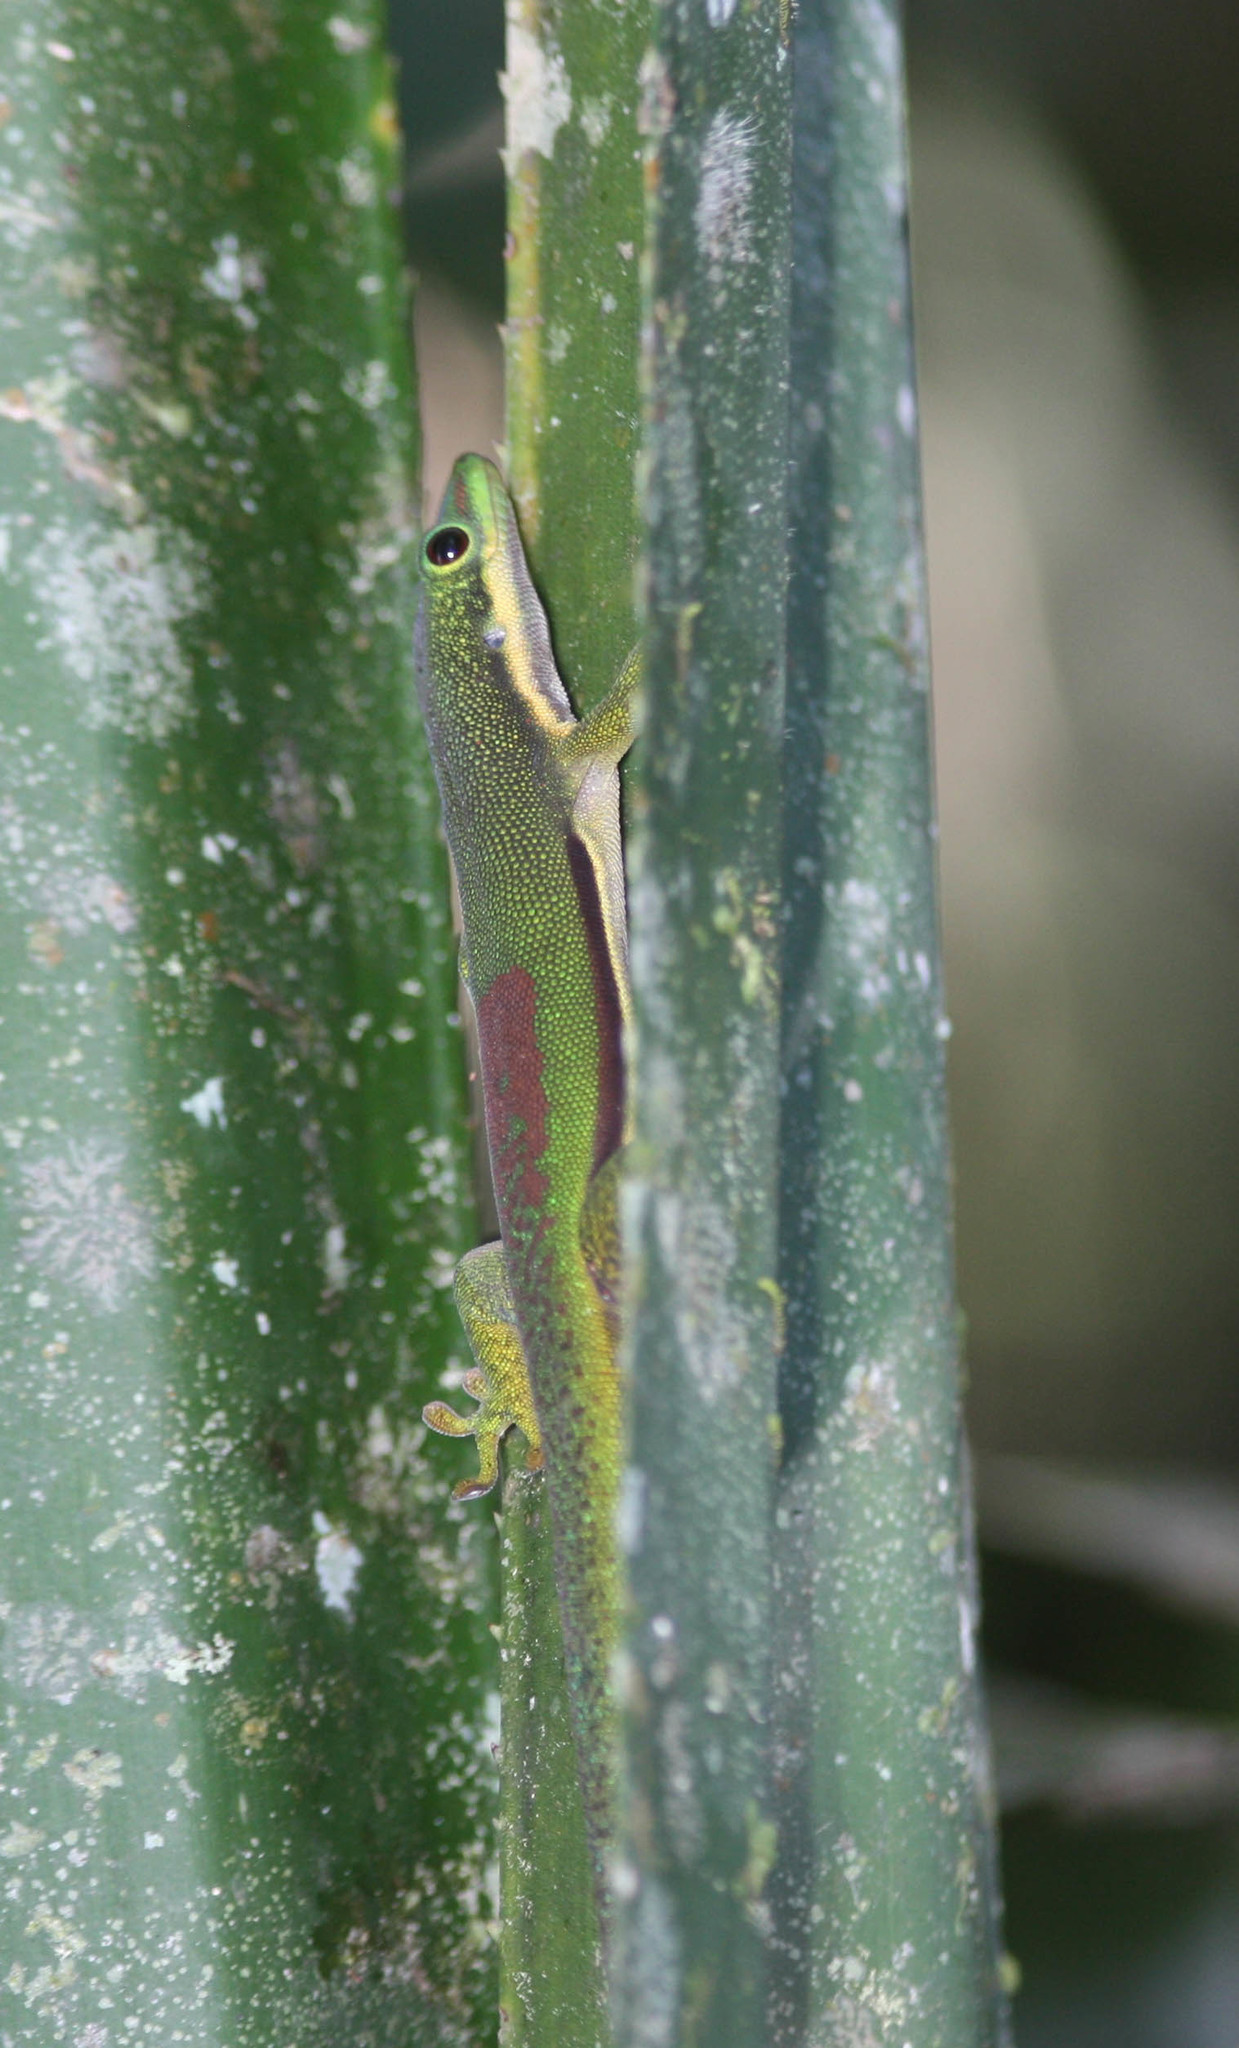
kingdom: Animalia
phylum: Chordata
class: Squamata
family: Gekkonidae
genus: Phelsuma
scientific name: Phelsuma lineata
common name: Lined day gecko
